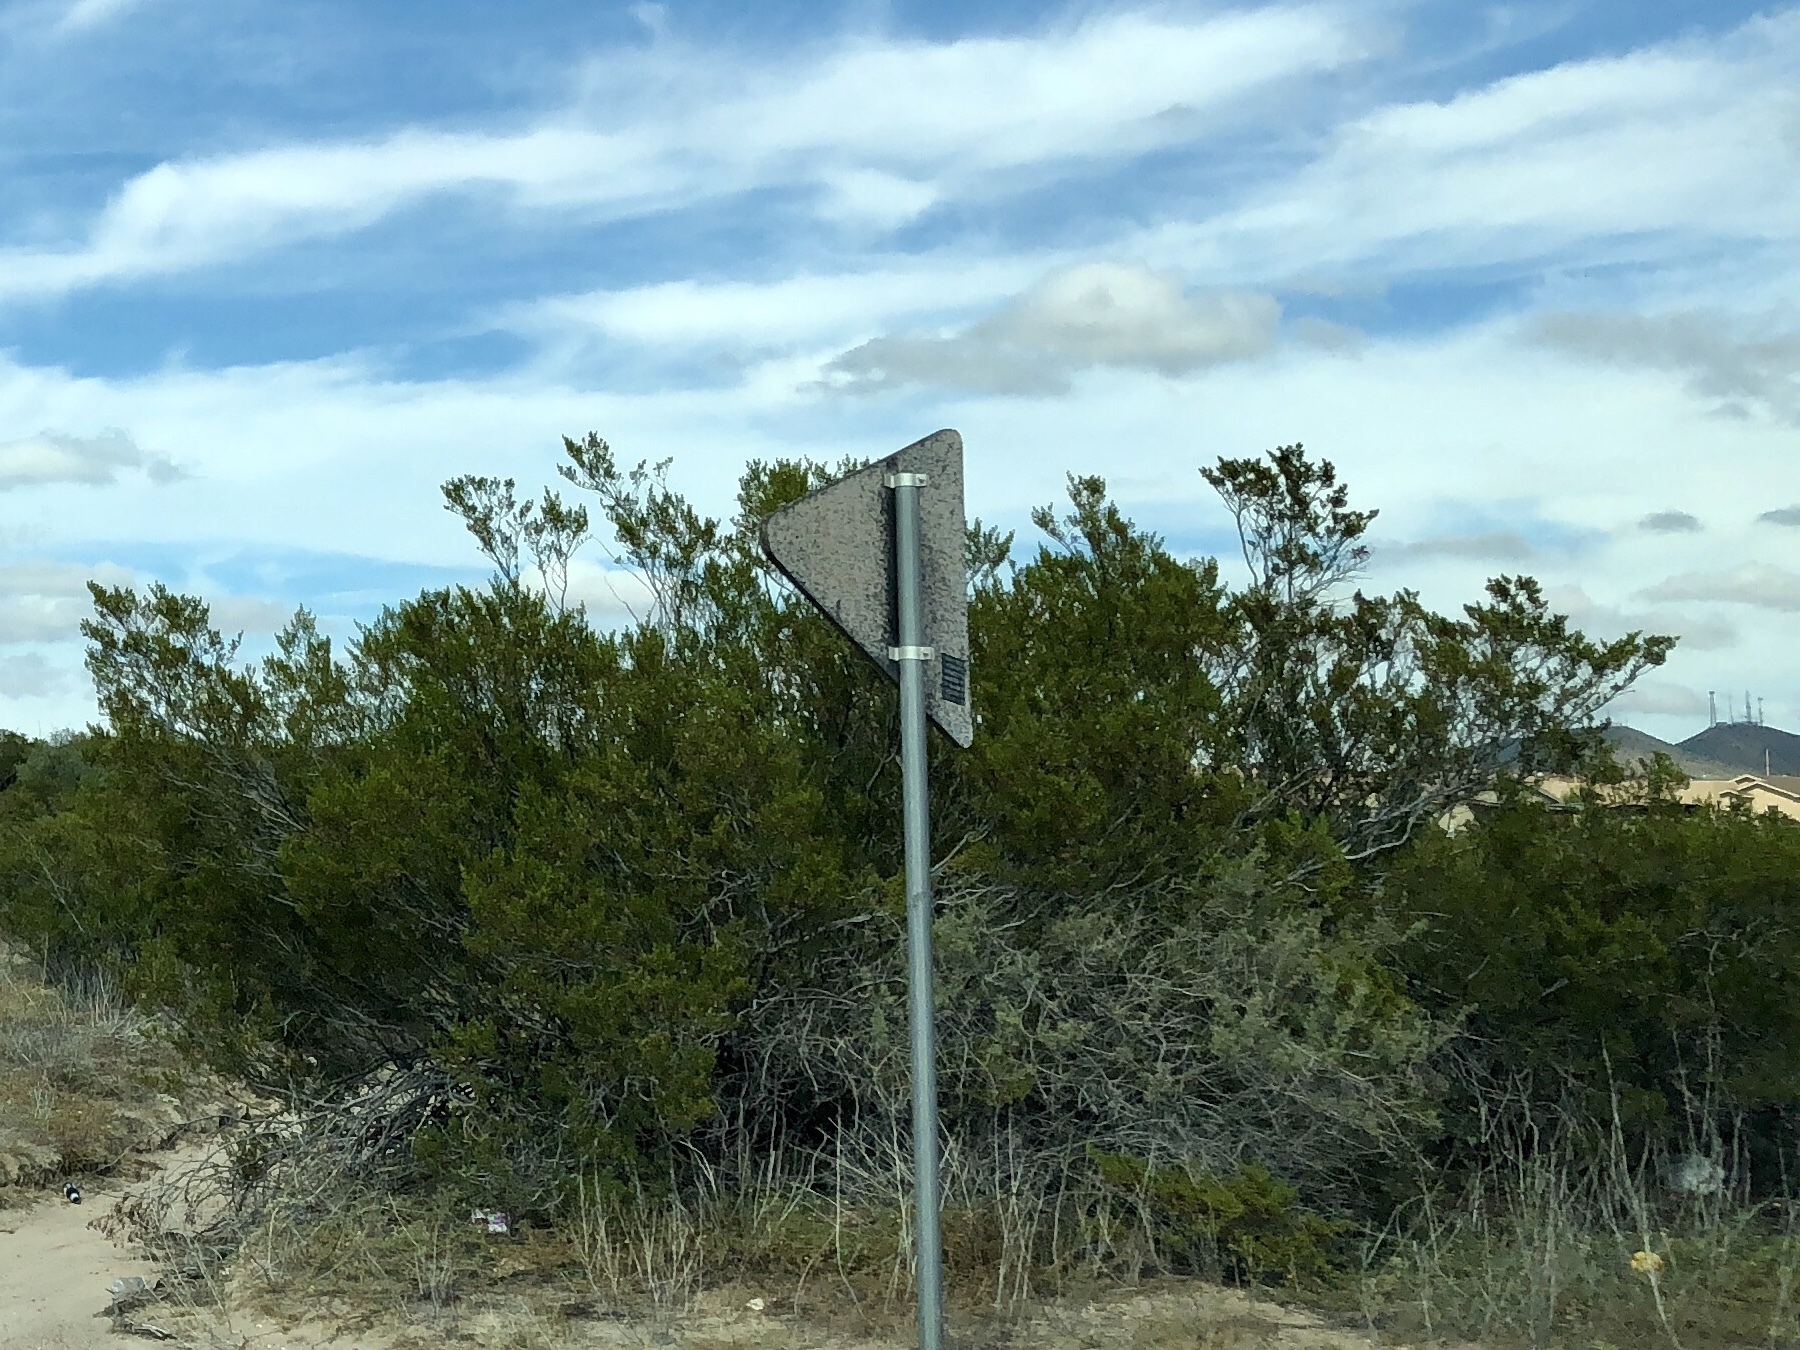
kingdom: Plantae
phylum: Tracheophyta
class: Magnoliopsida
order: Zygophyllales
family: Zygophyllaceae
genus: Larrea
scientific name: Larrea tridentata
